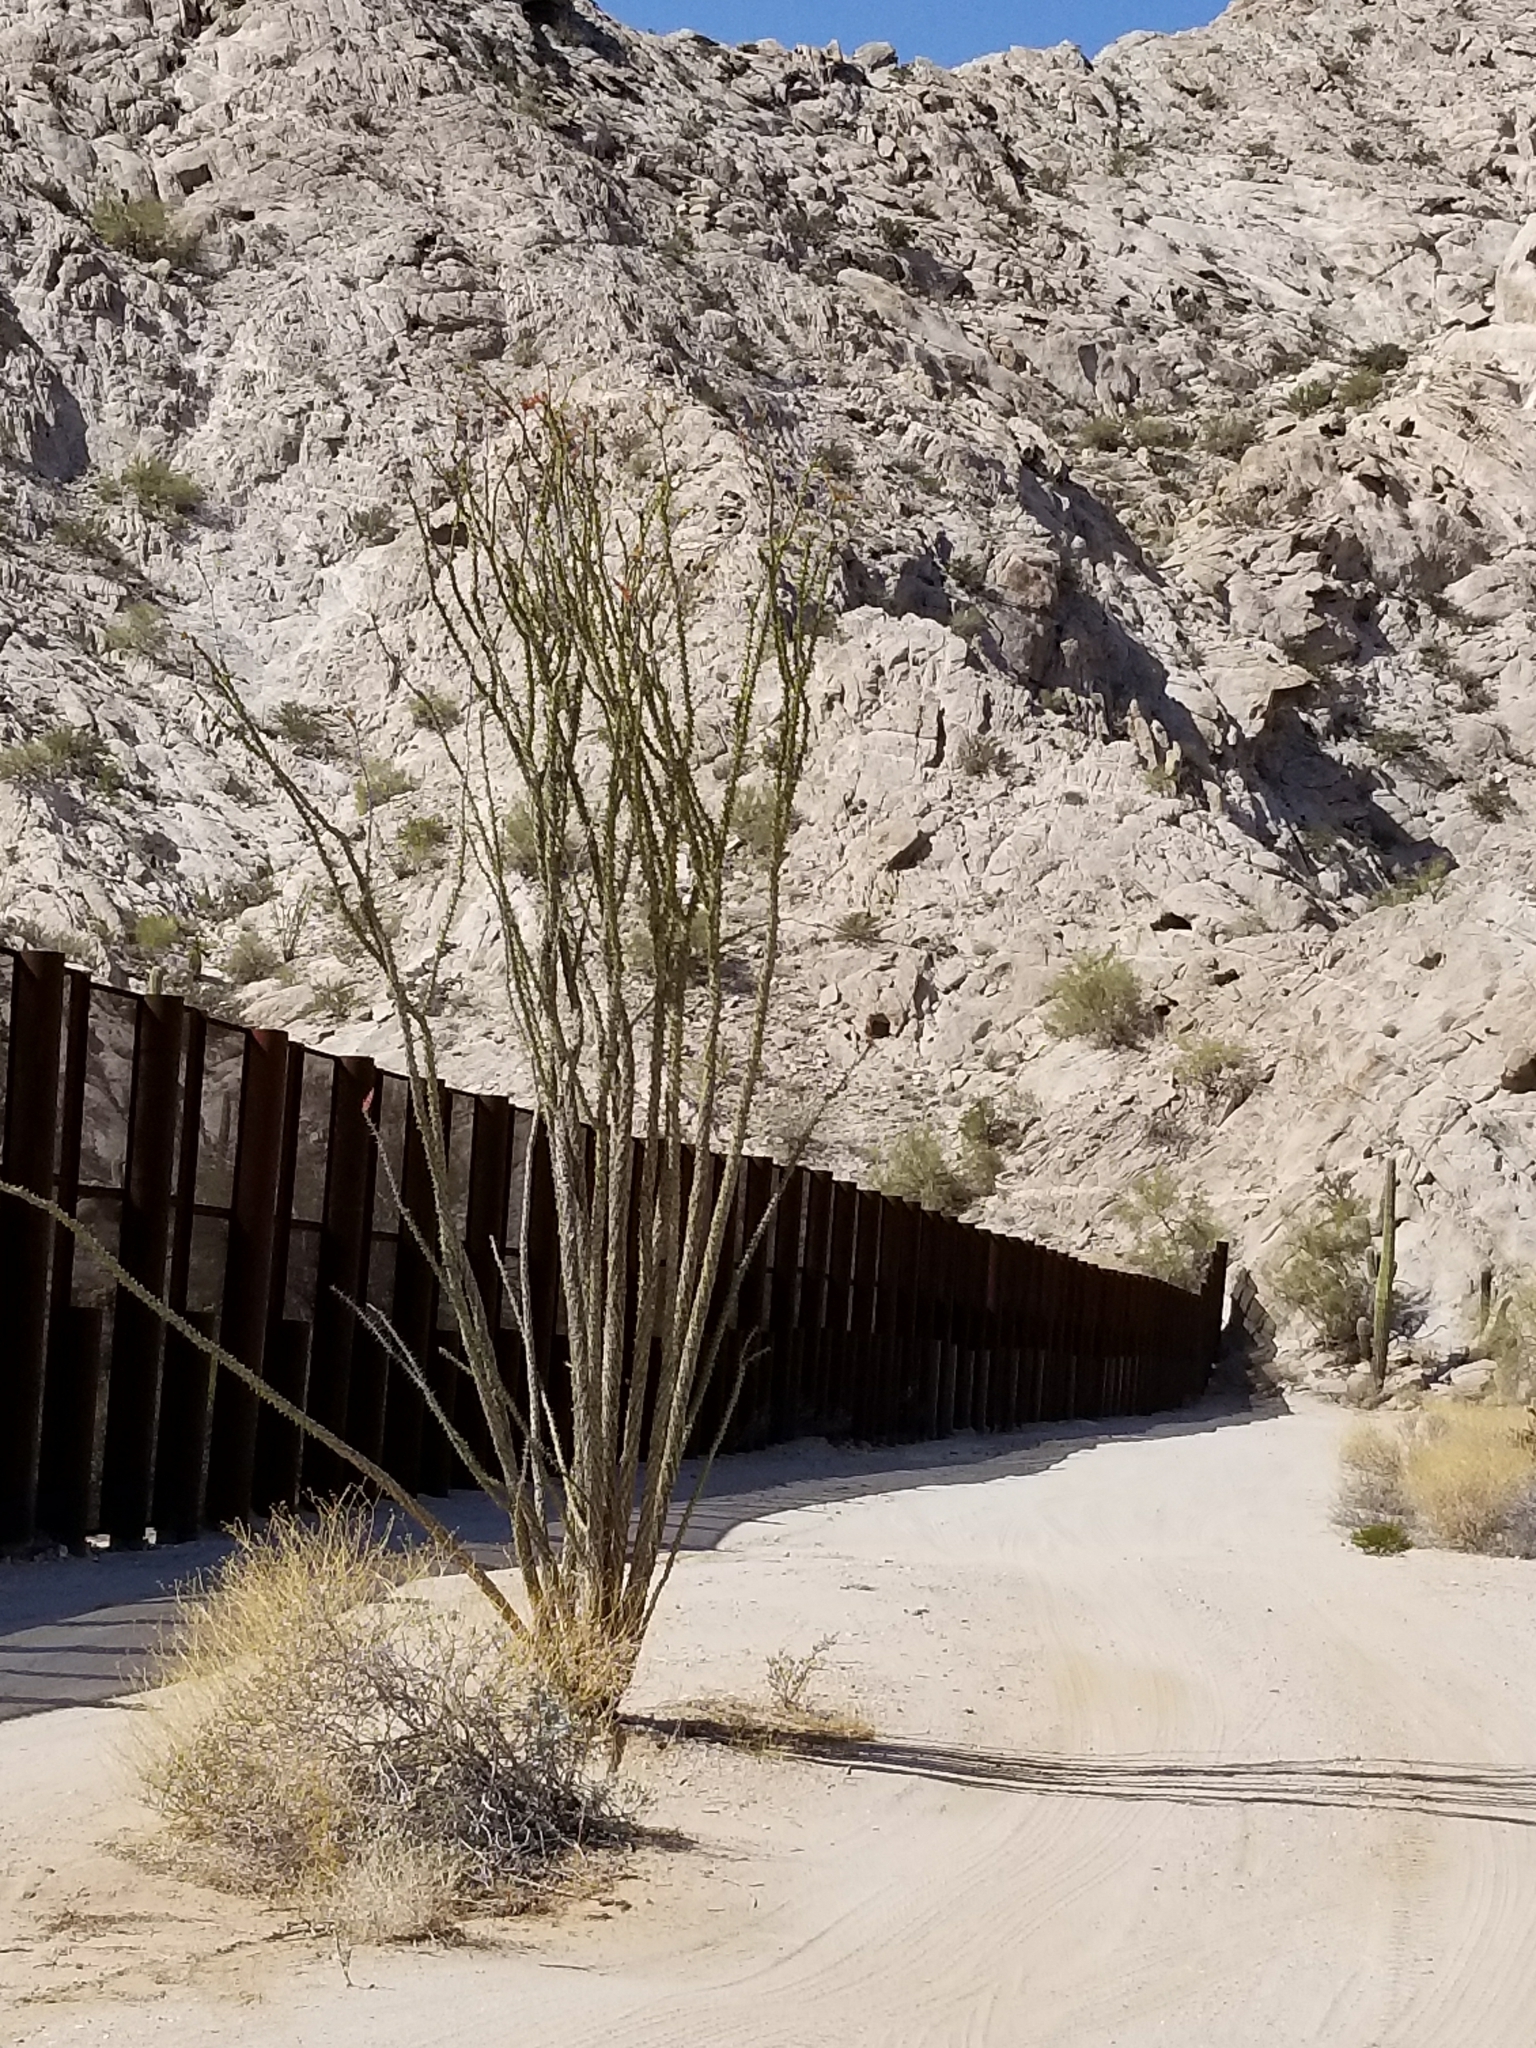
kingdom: Plantae
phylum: Tracheophyta
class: Magnoliopsida
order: Ericales
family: Fouquieriaceae
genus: Fouquieria
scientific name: Fouquieria splendens
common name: Vine-cactus
